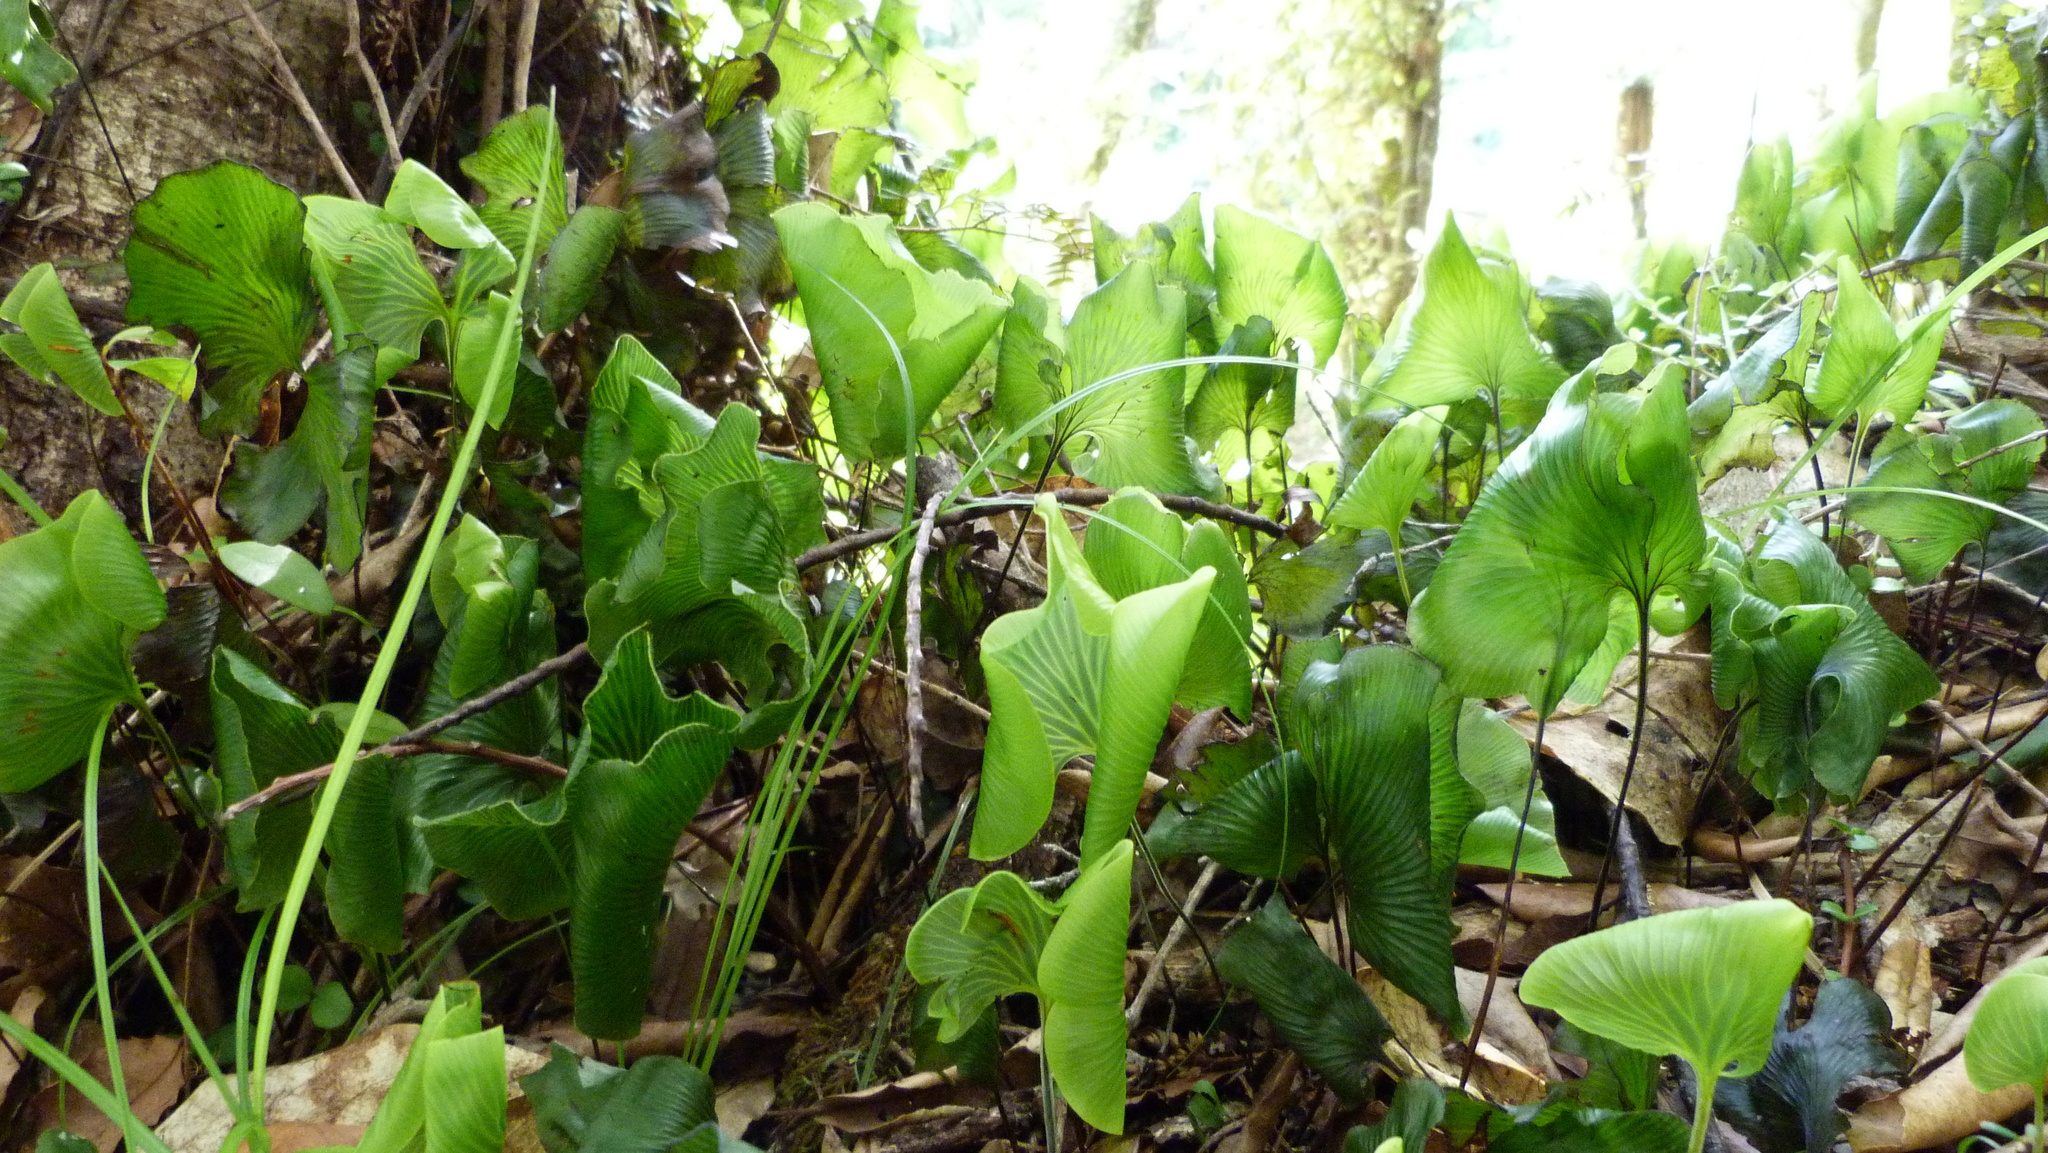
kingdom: Plantae
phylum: Tracheophyta
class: Polypodiopsida
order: Hymenophyllales
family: Hymenophyllaceae
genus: Hymenophyllum
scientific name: Hymenophyllum nephrophyllum
